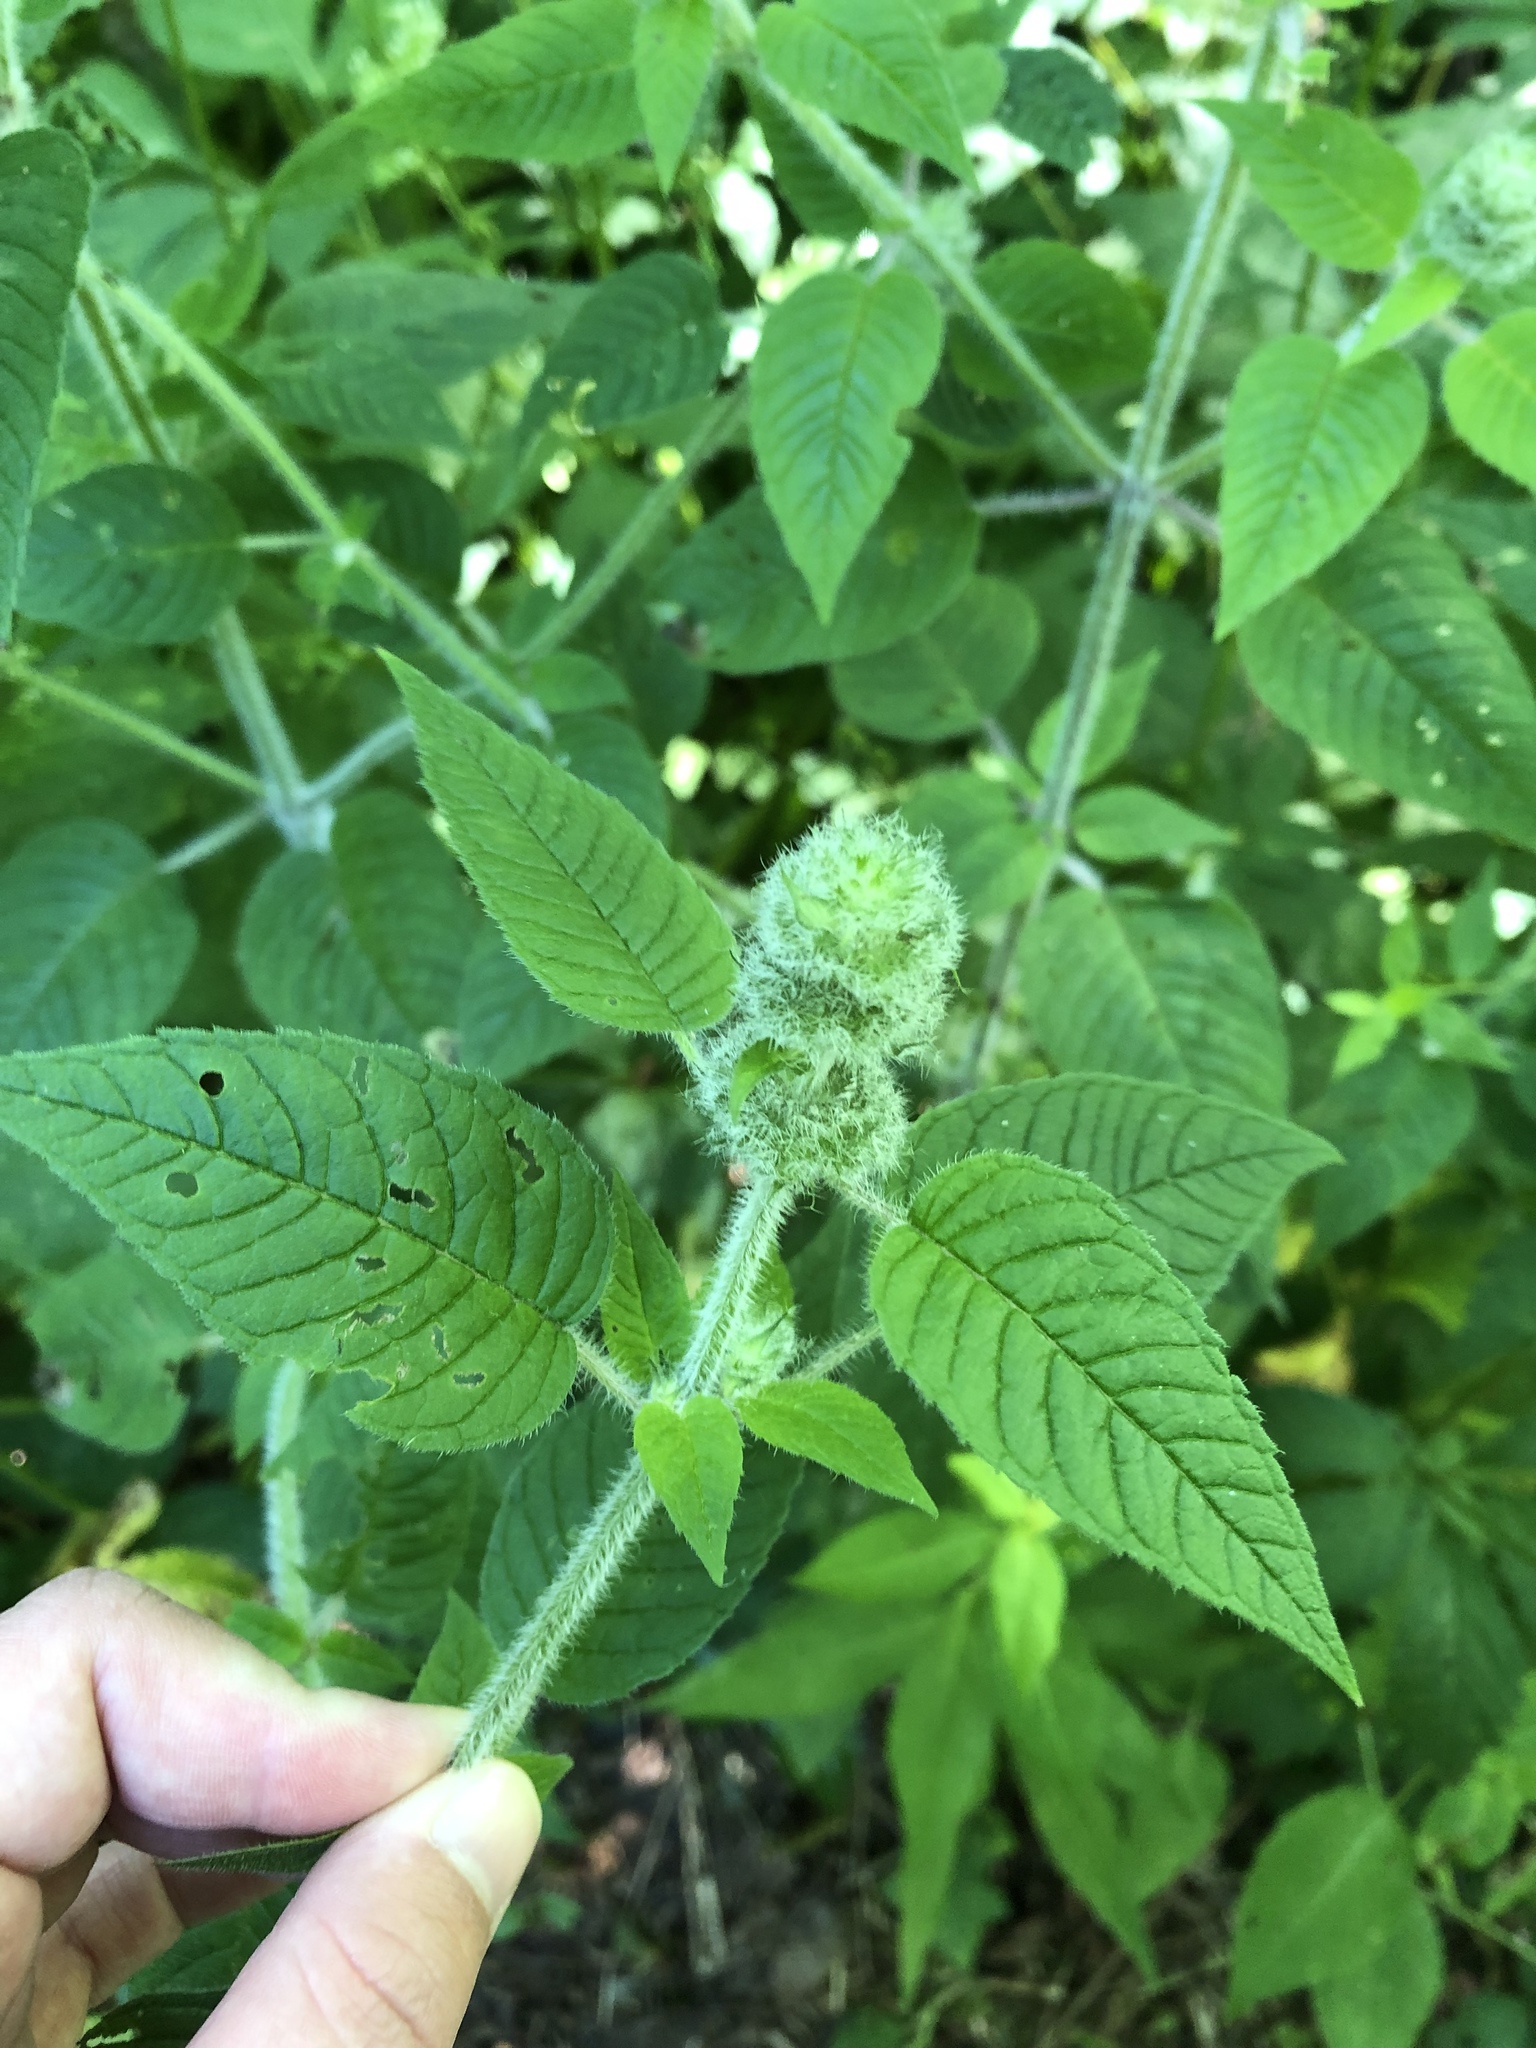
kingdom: Plantae
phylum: Tracheophyta
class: Magnoliopsida
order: Lamiales
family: Lamiaceae
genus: Blephilia
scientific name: Blephilia hirsuta
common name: Hairy blephilia
